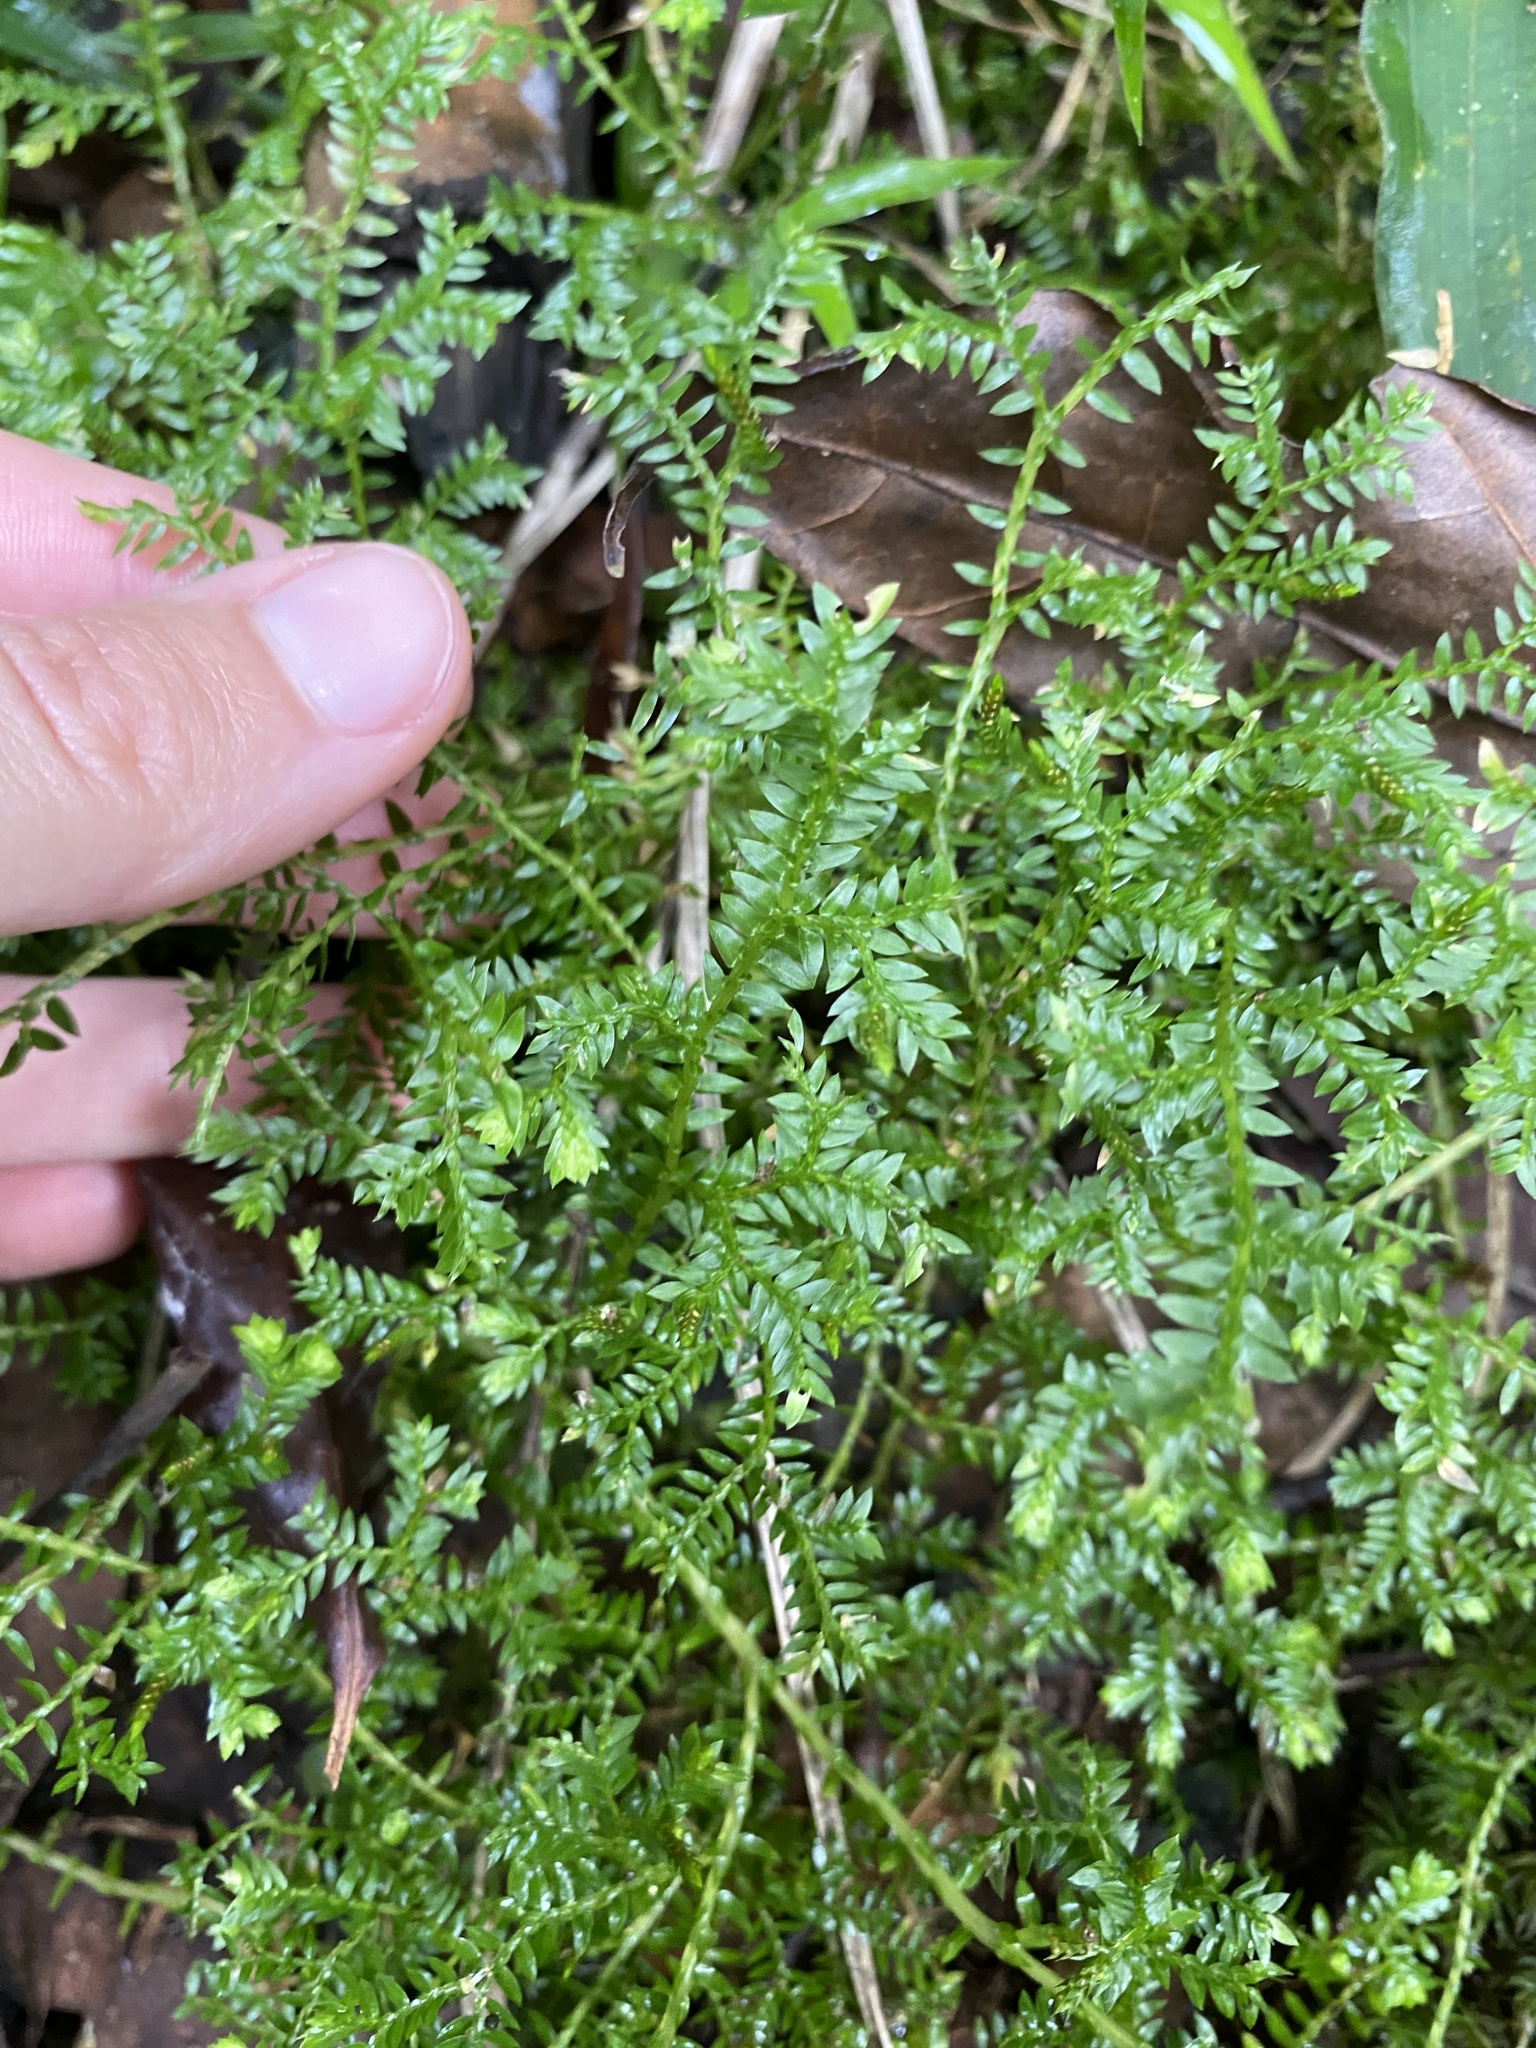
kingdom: Plantae
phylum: Tracheophyta
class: Lycopodiopsida
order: Selaginellales
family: Selaginellaceae
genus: Selaginella
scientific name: Selaginella kraussiana
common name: Krauss' spikemoss
